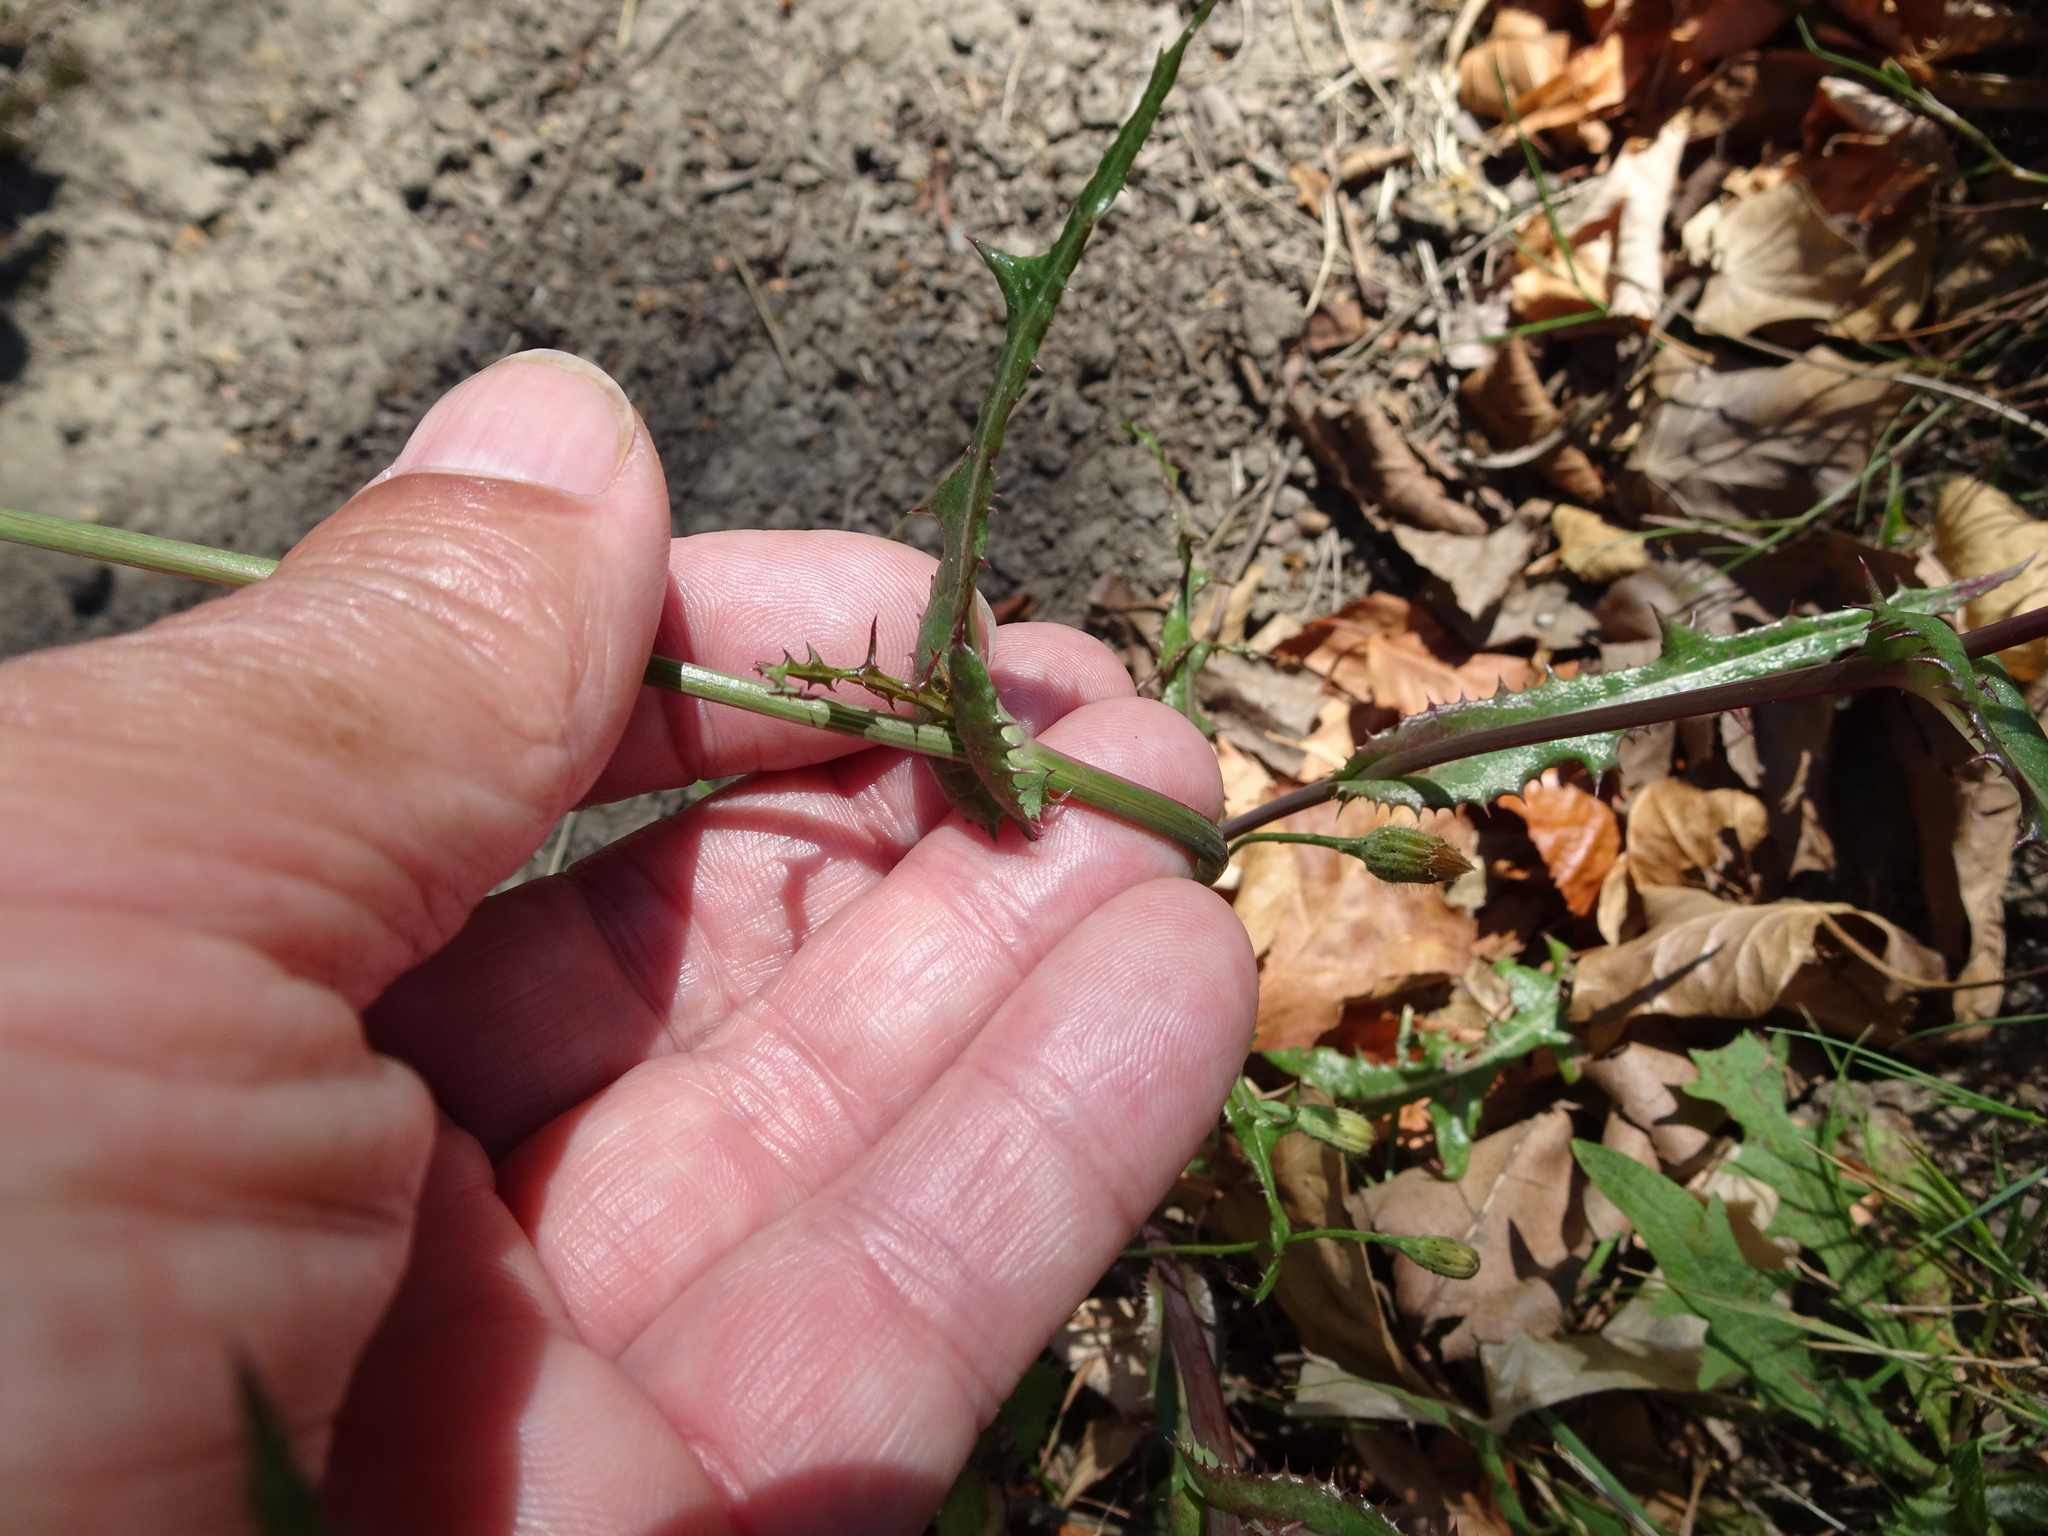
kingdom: Plantae
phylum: Tracheophyta
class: Magnoliopsida
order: Asterales
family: Asteraceae
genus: Sonchus
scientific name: Sonchus asper
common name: Prickly sow-thistle
